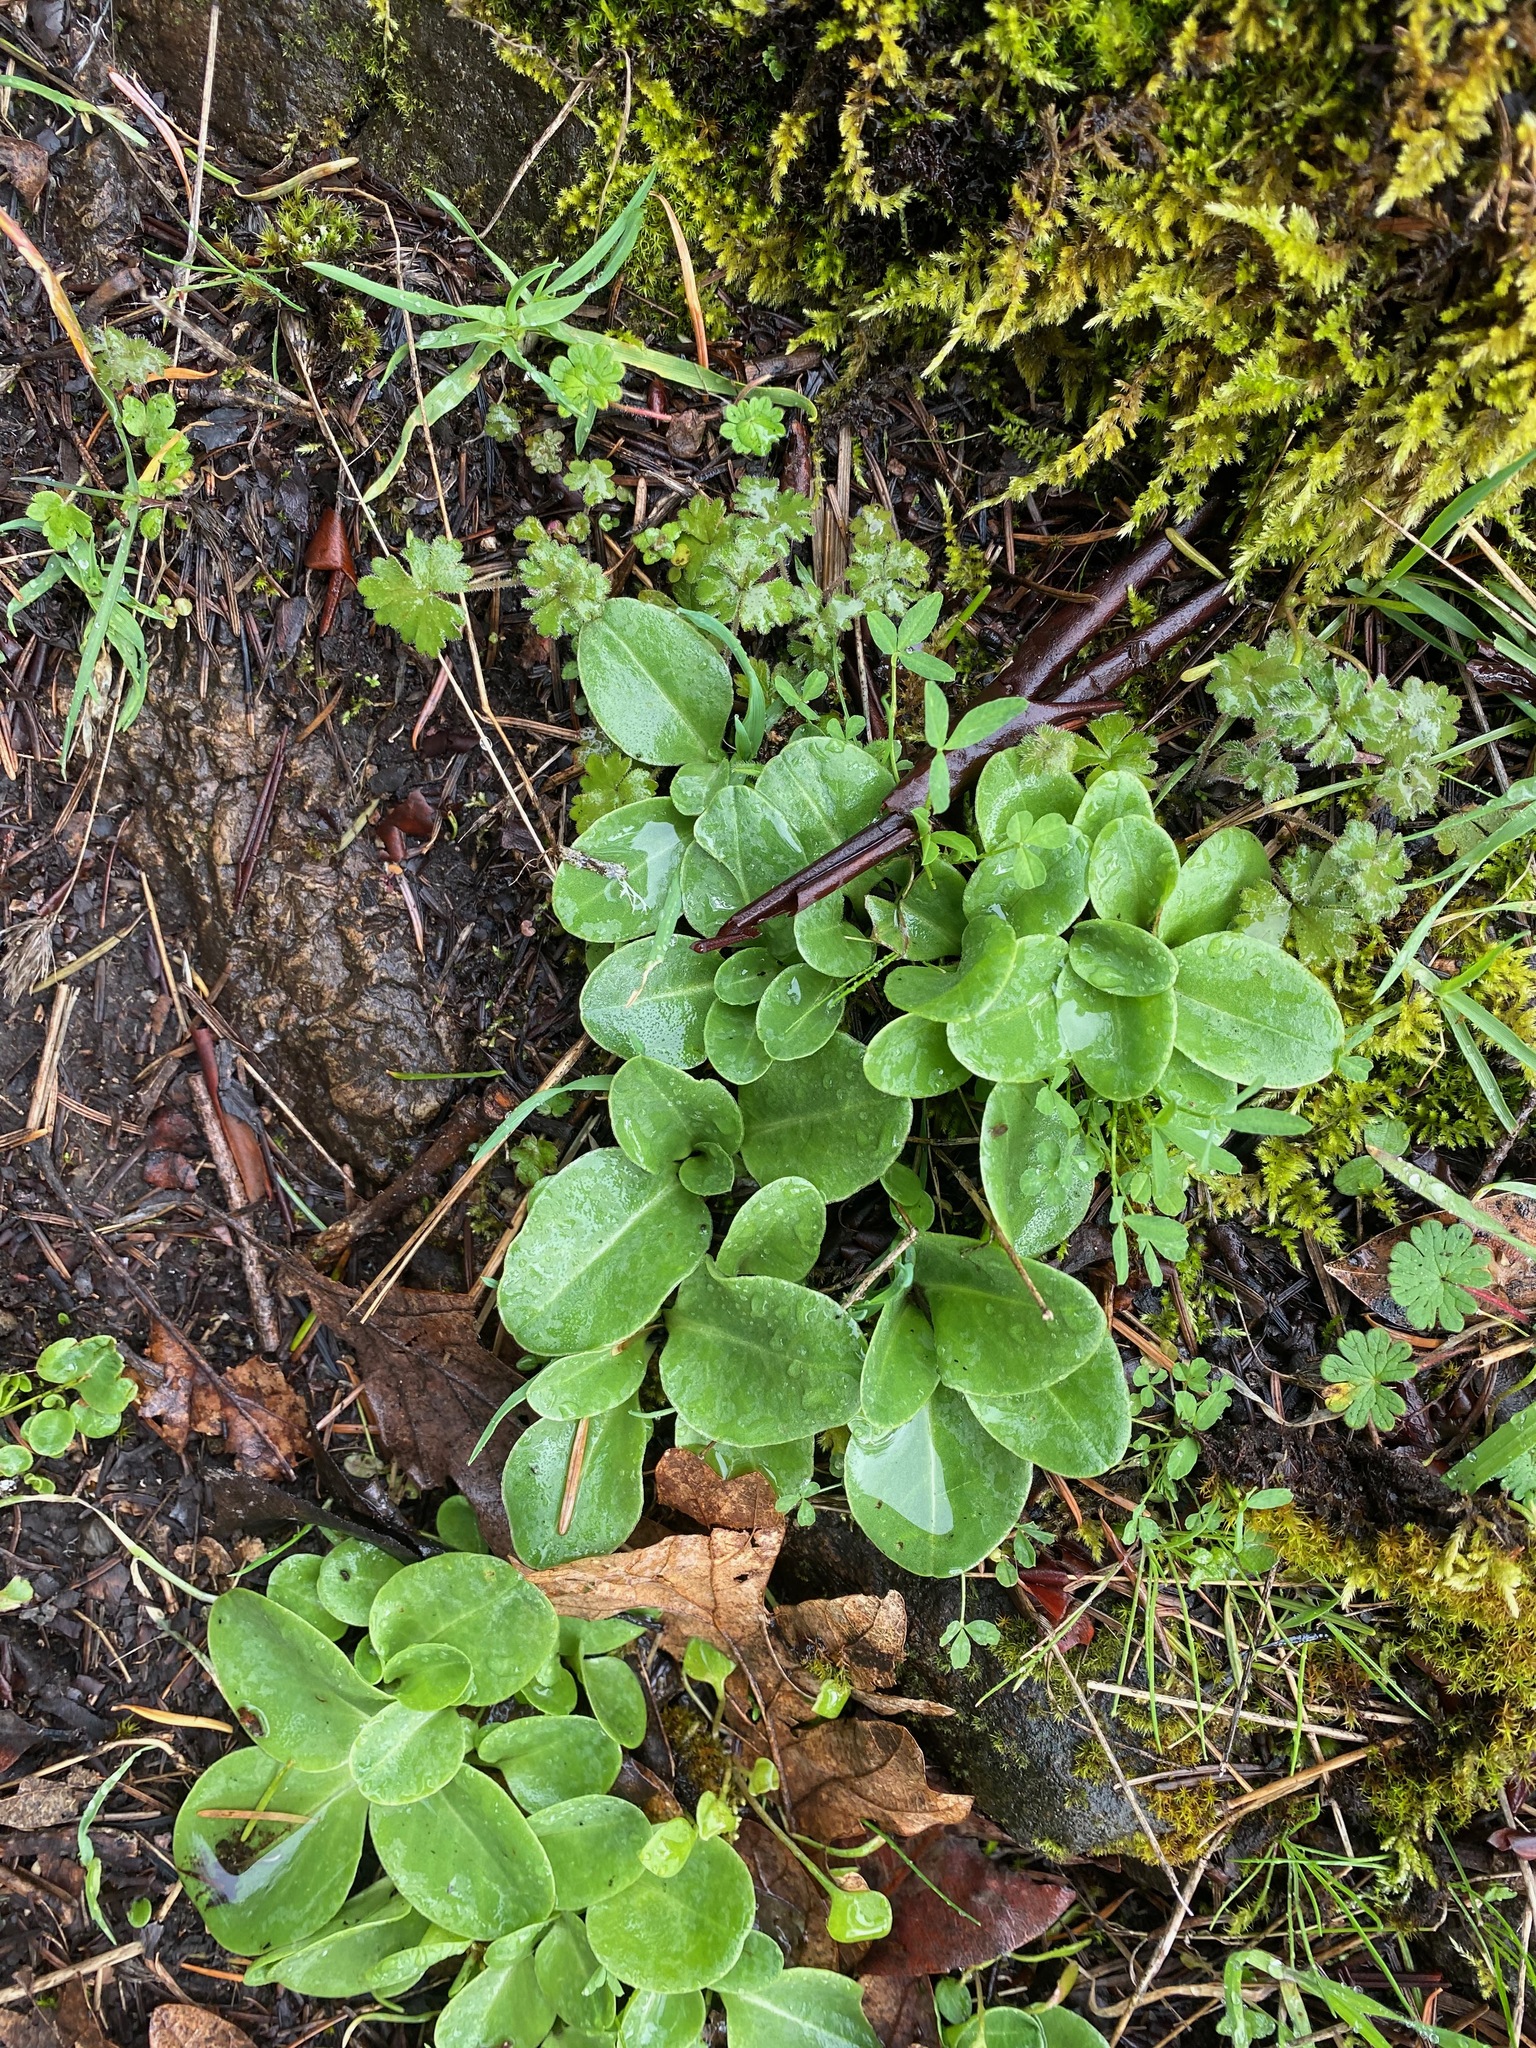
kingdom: Plantae
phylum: Tracheophyta
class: Magnoliopsida
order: Ericales
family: Primulaceae
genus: Dodecatheon
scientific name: Dodecatheon hendersonii
